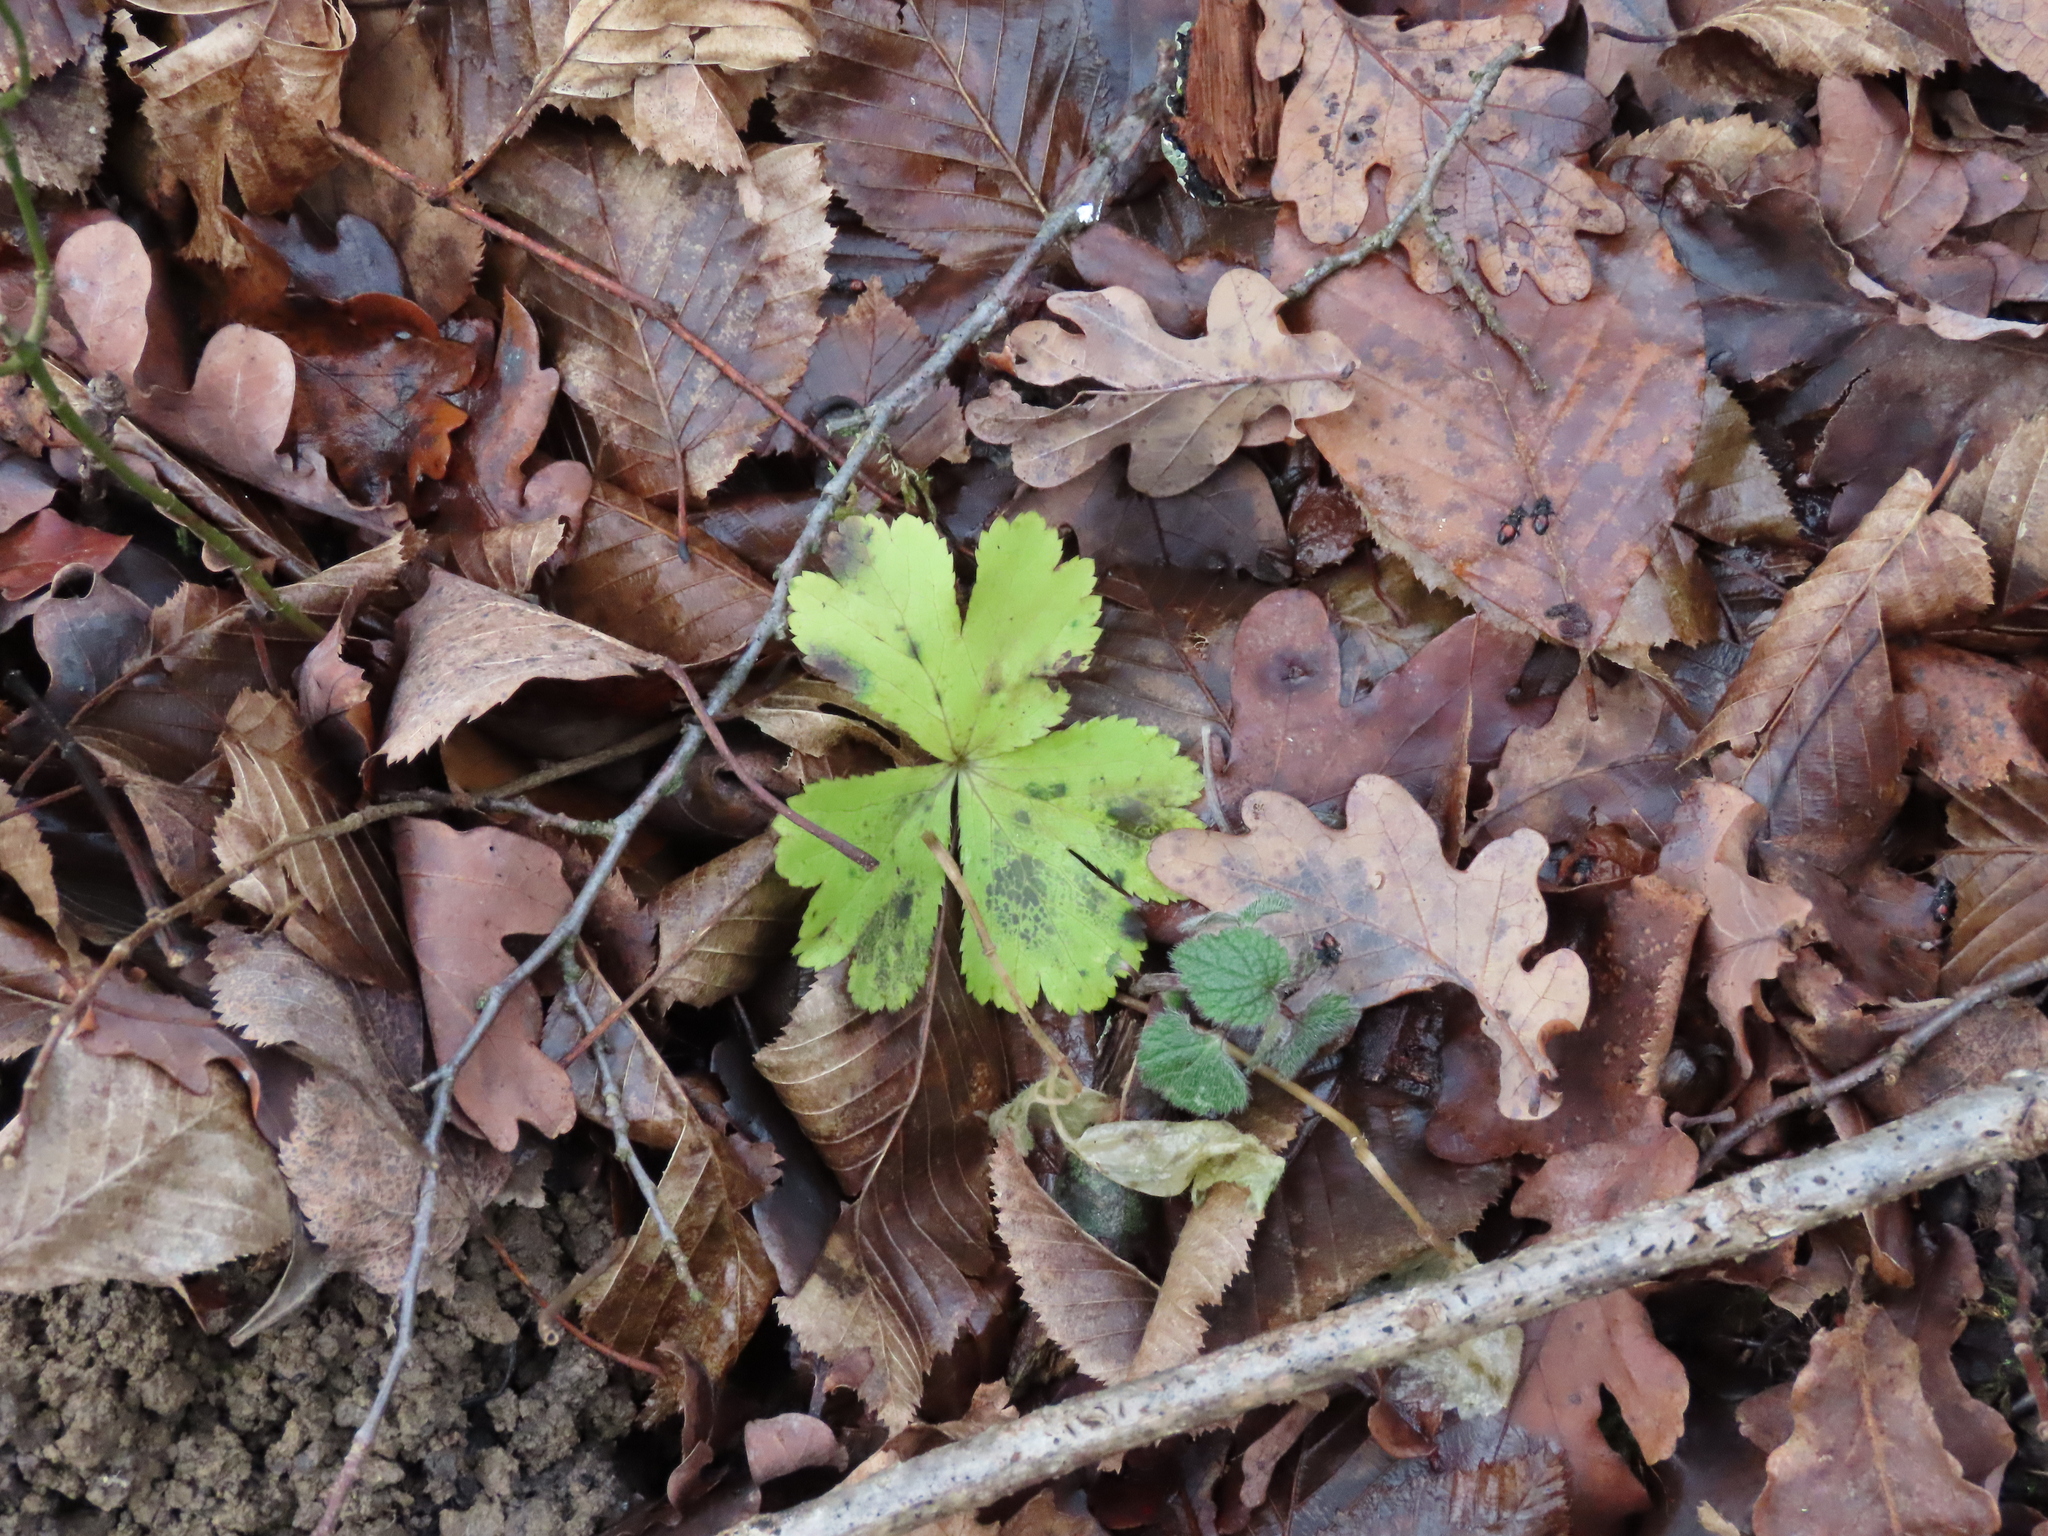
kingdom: Plantae
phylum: Tracheophyta
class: Magnoliopsida
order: Apiales
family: Apiaceae
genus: Sanicula
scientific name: Sanicula europaea
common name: Sanicle
